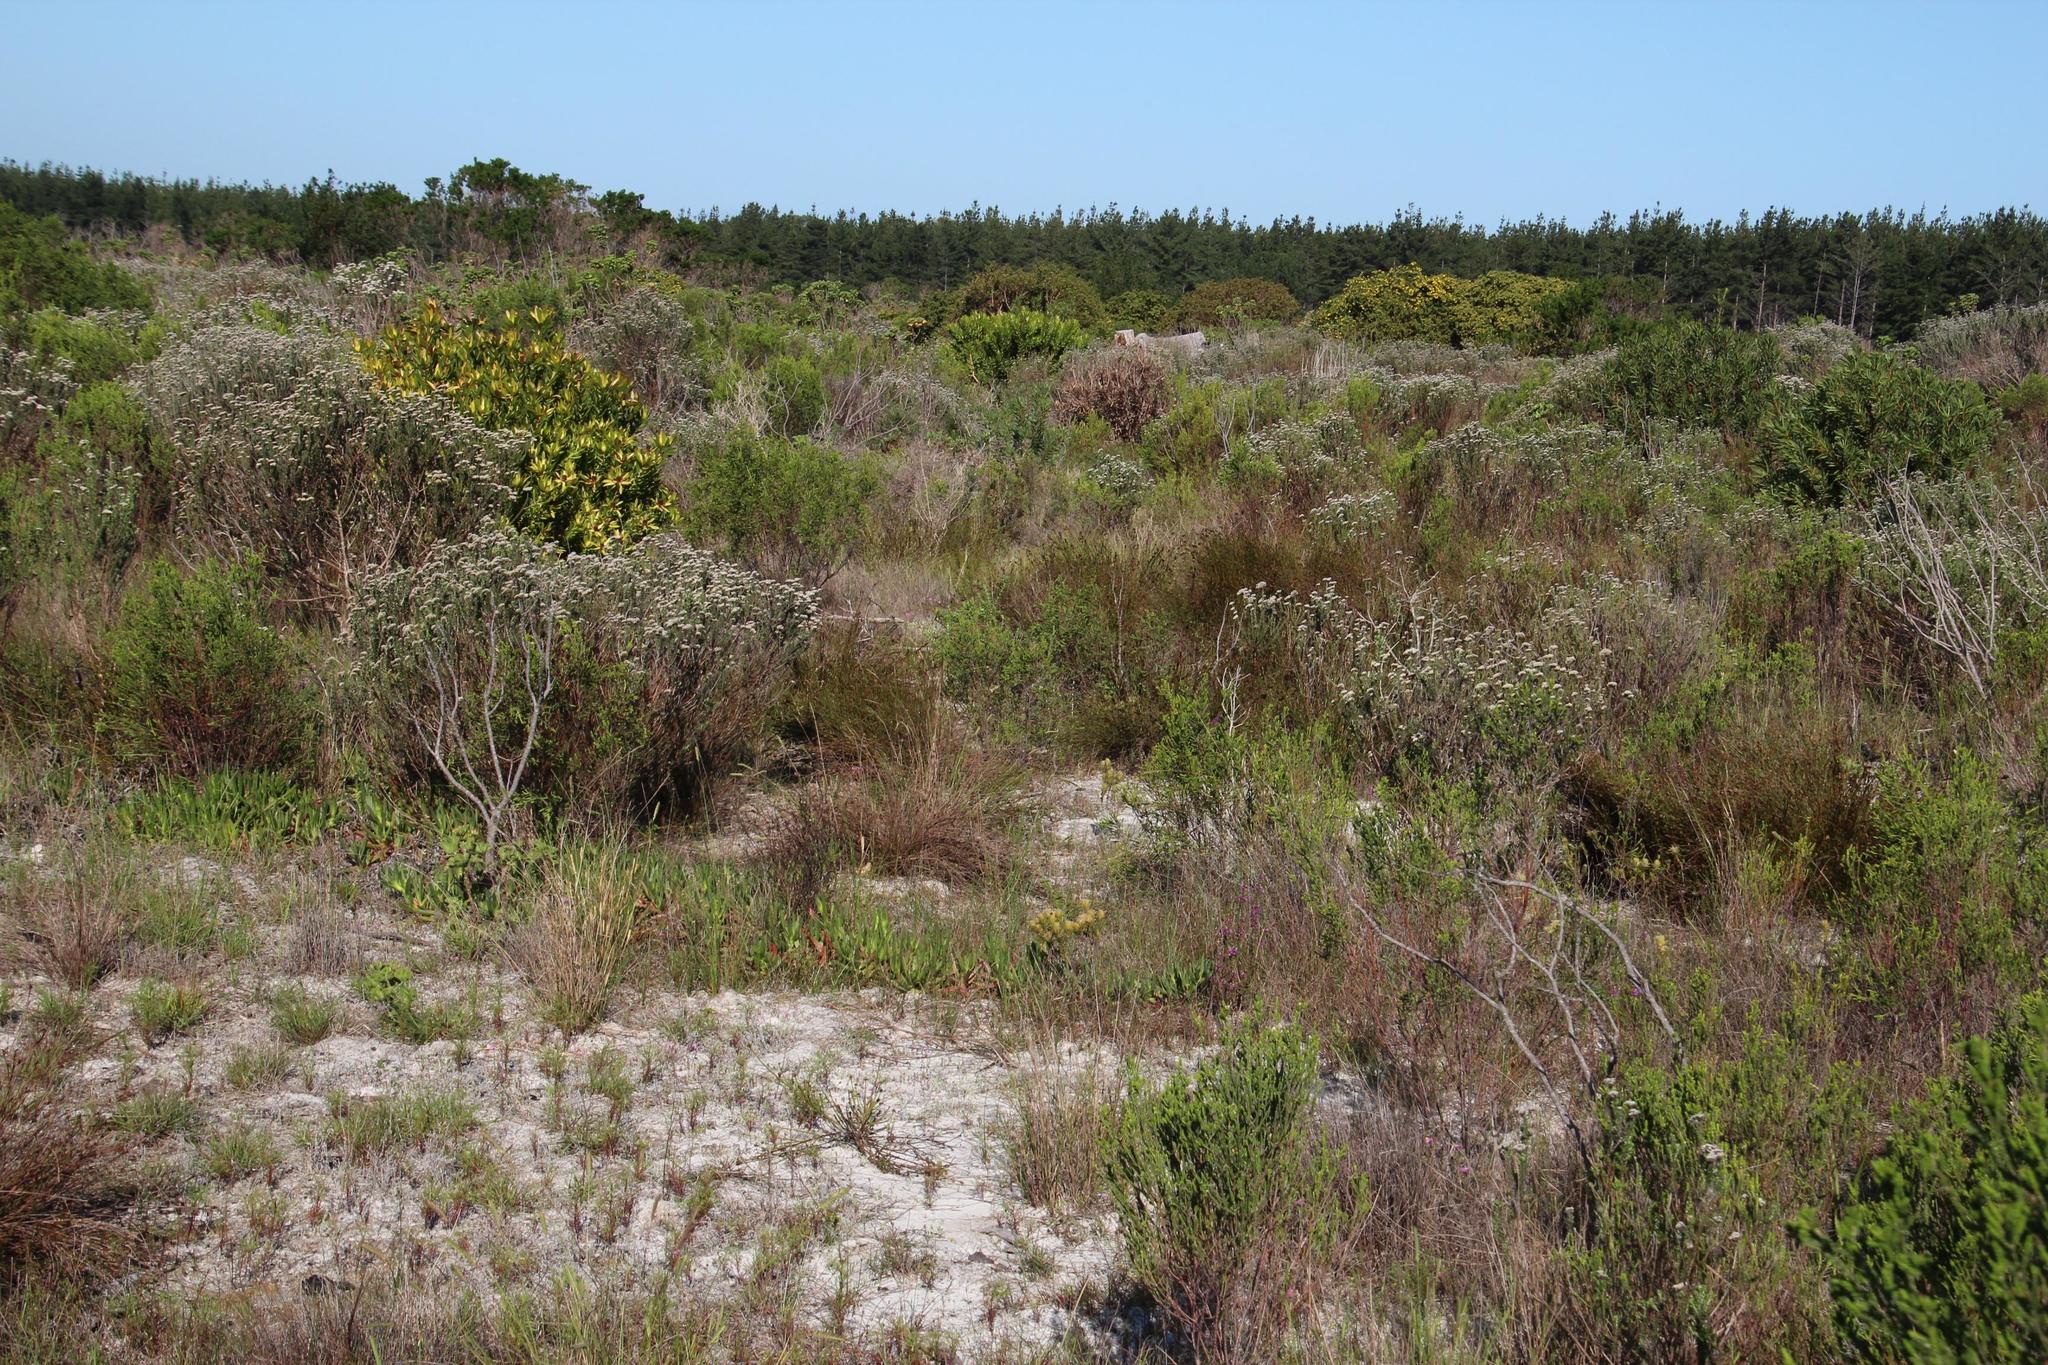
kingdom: Plantae
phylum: Tracheophyta
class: Liliopsida
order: Poales
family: Restionaceae
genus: Restio
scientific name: Restio bifurcus
